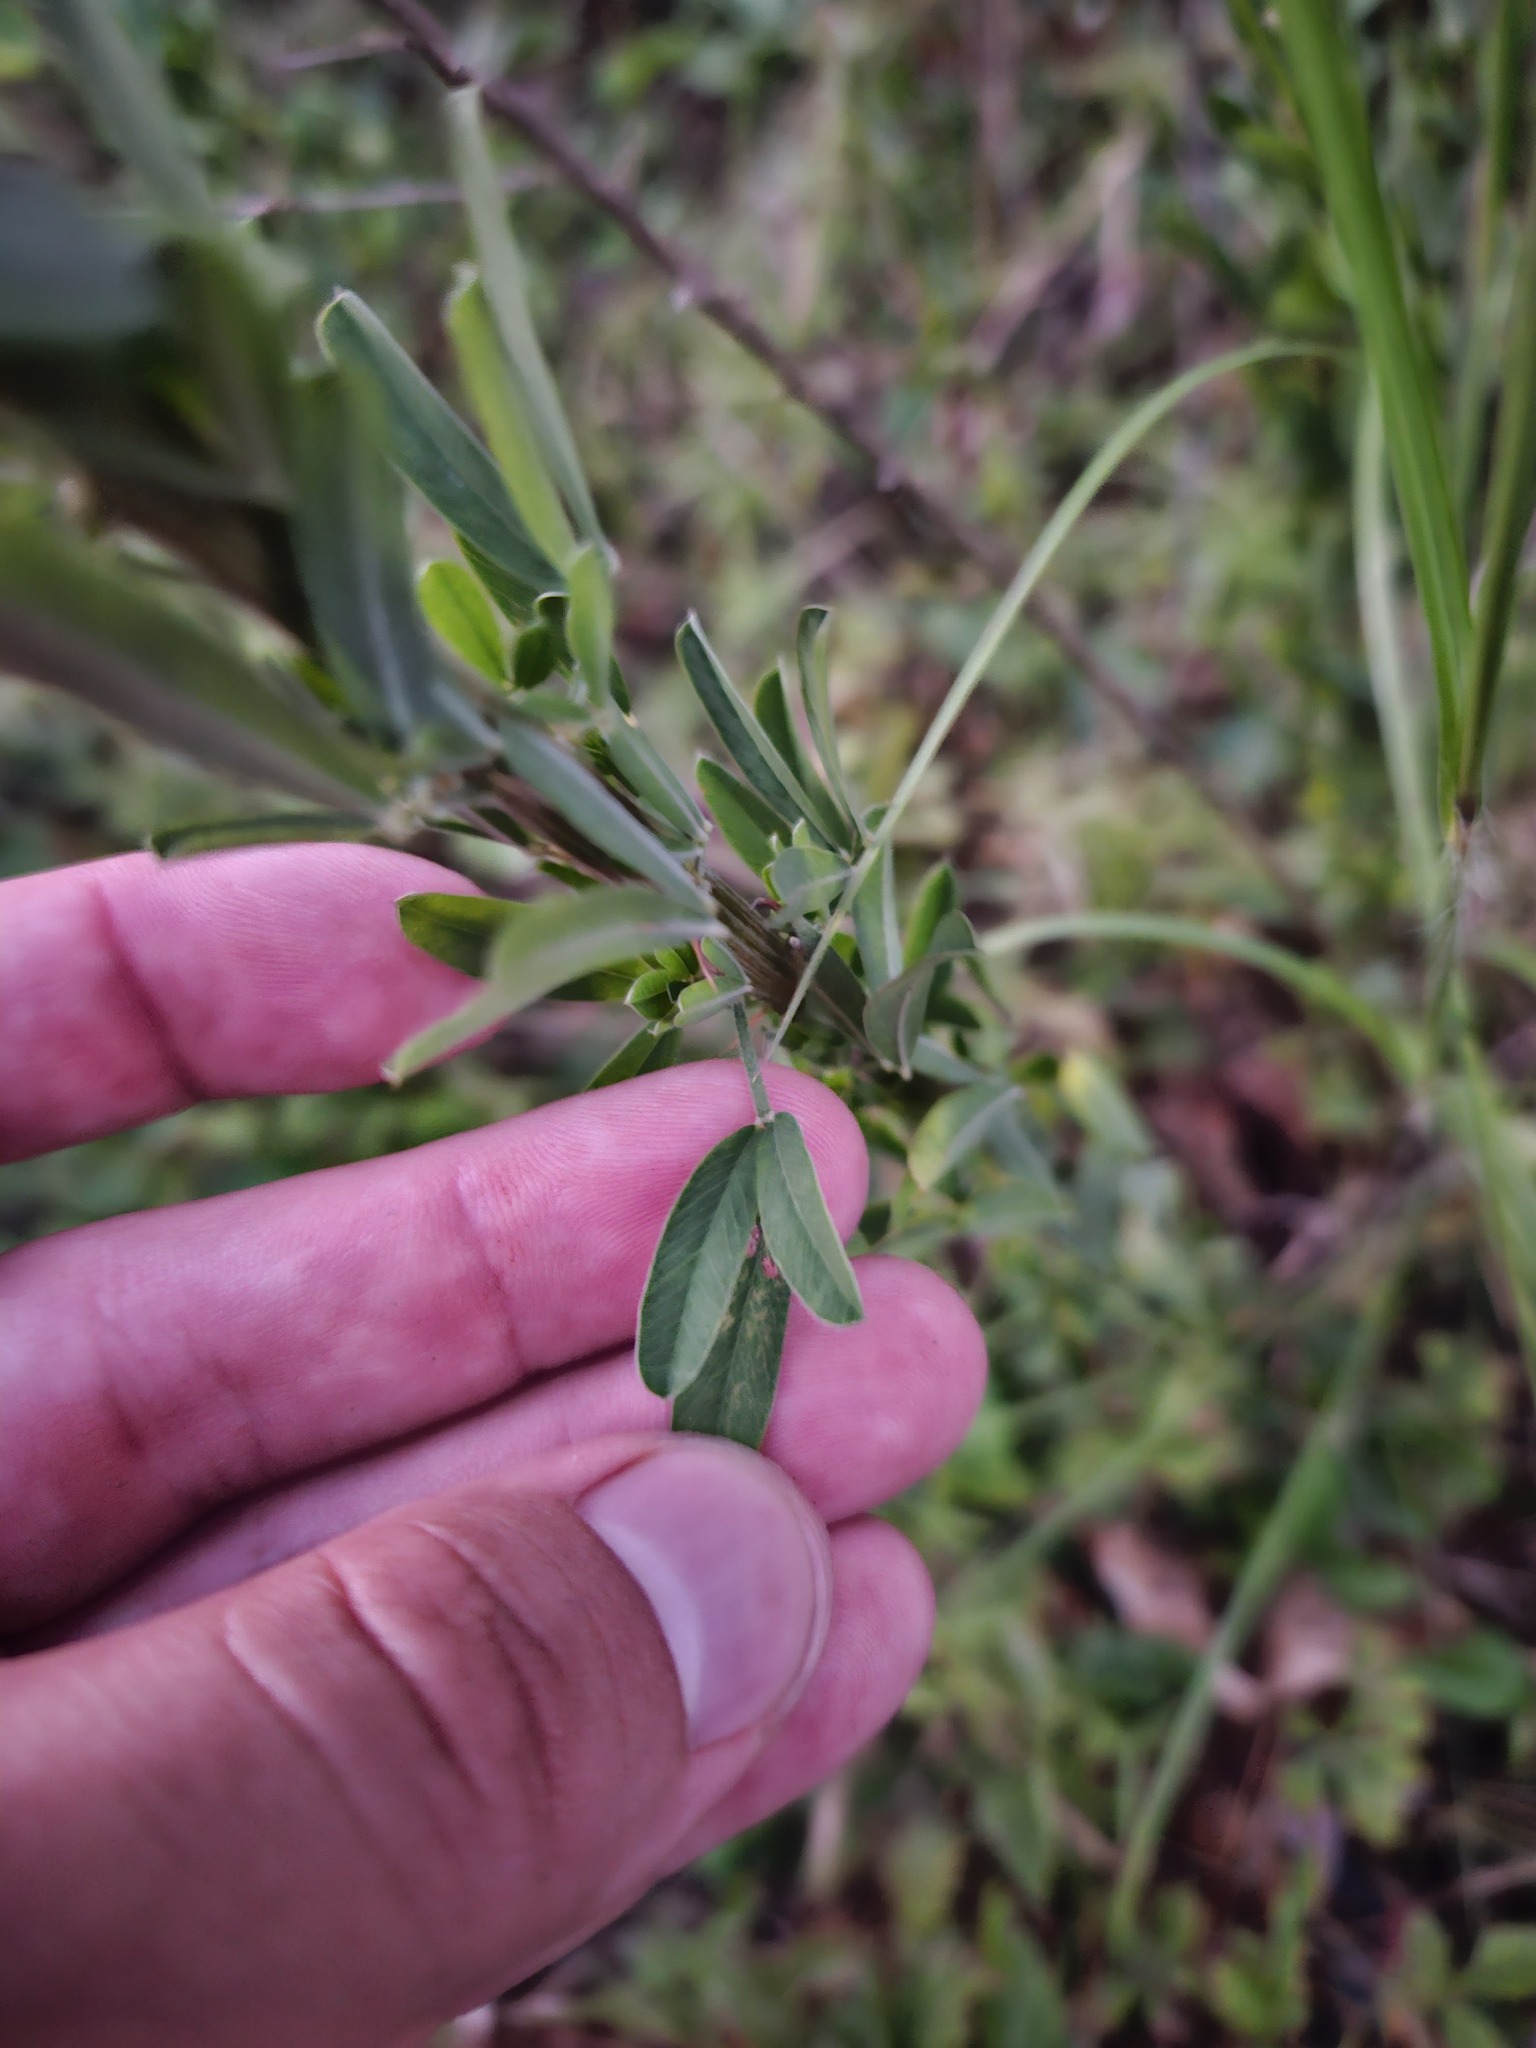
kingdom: Plantae
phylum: Tracheophyta
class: Magnoliopsida
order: Fabales
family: Fabaceae
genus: Lespedeza
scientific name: Lespedeza cuneata
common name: Chinese bush-clover
